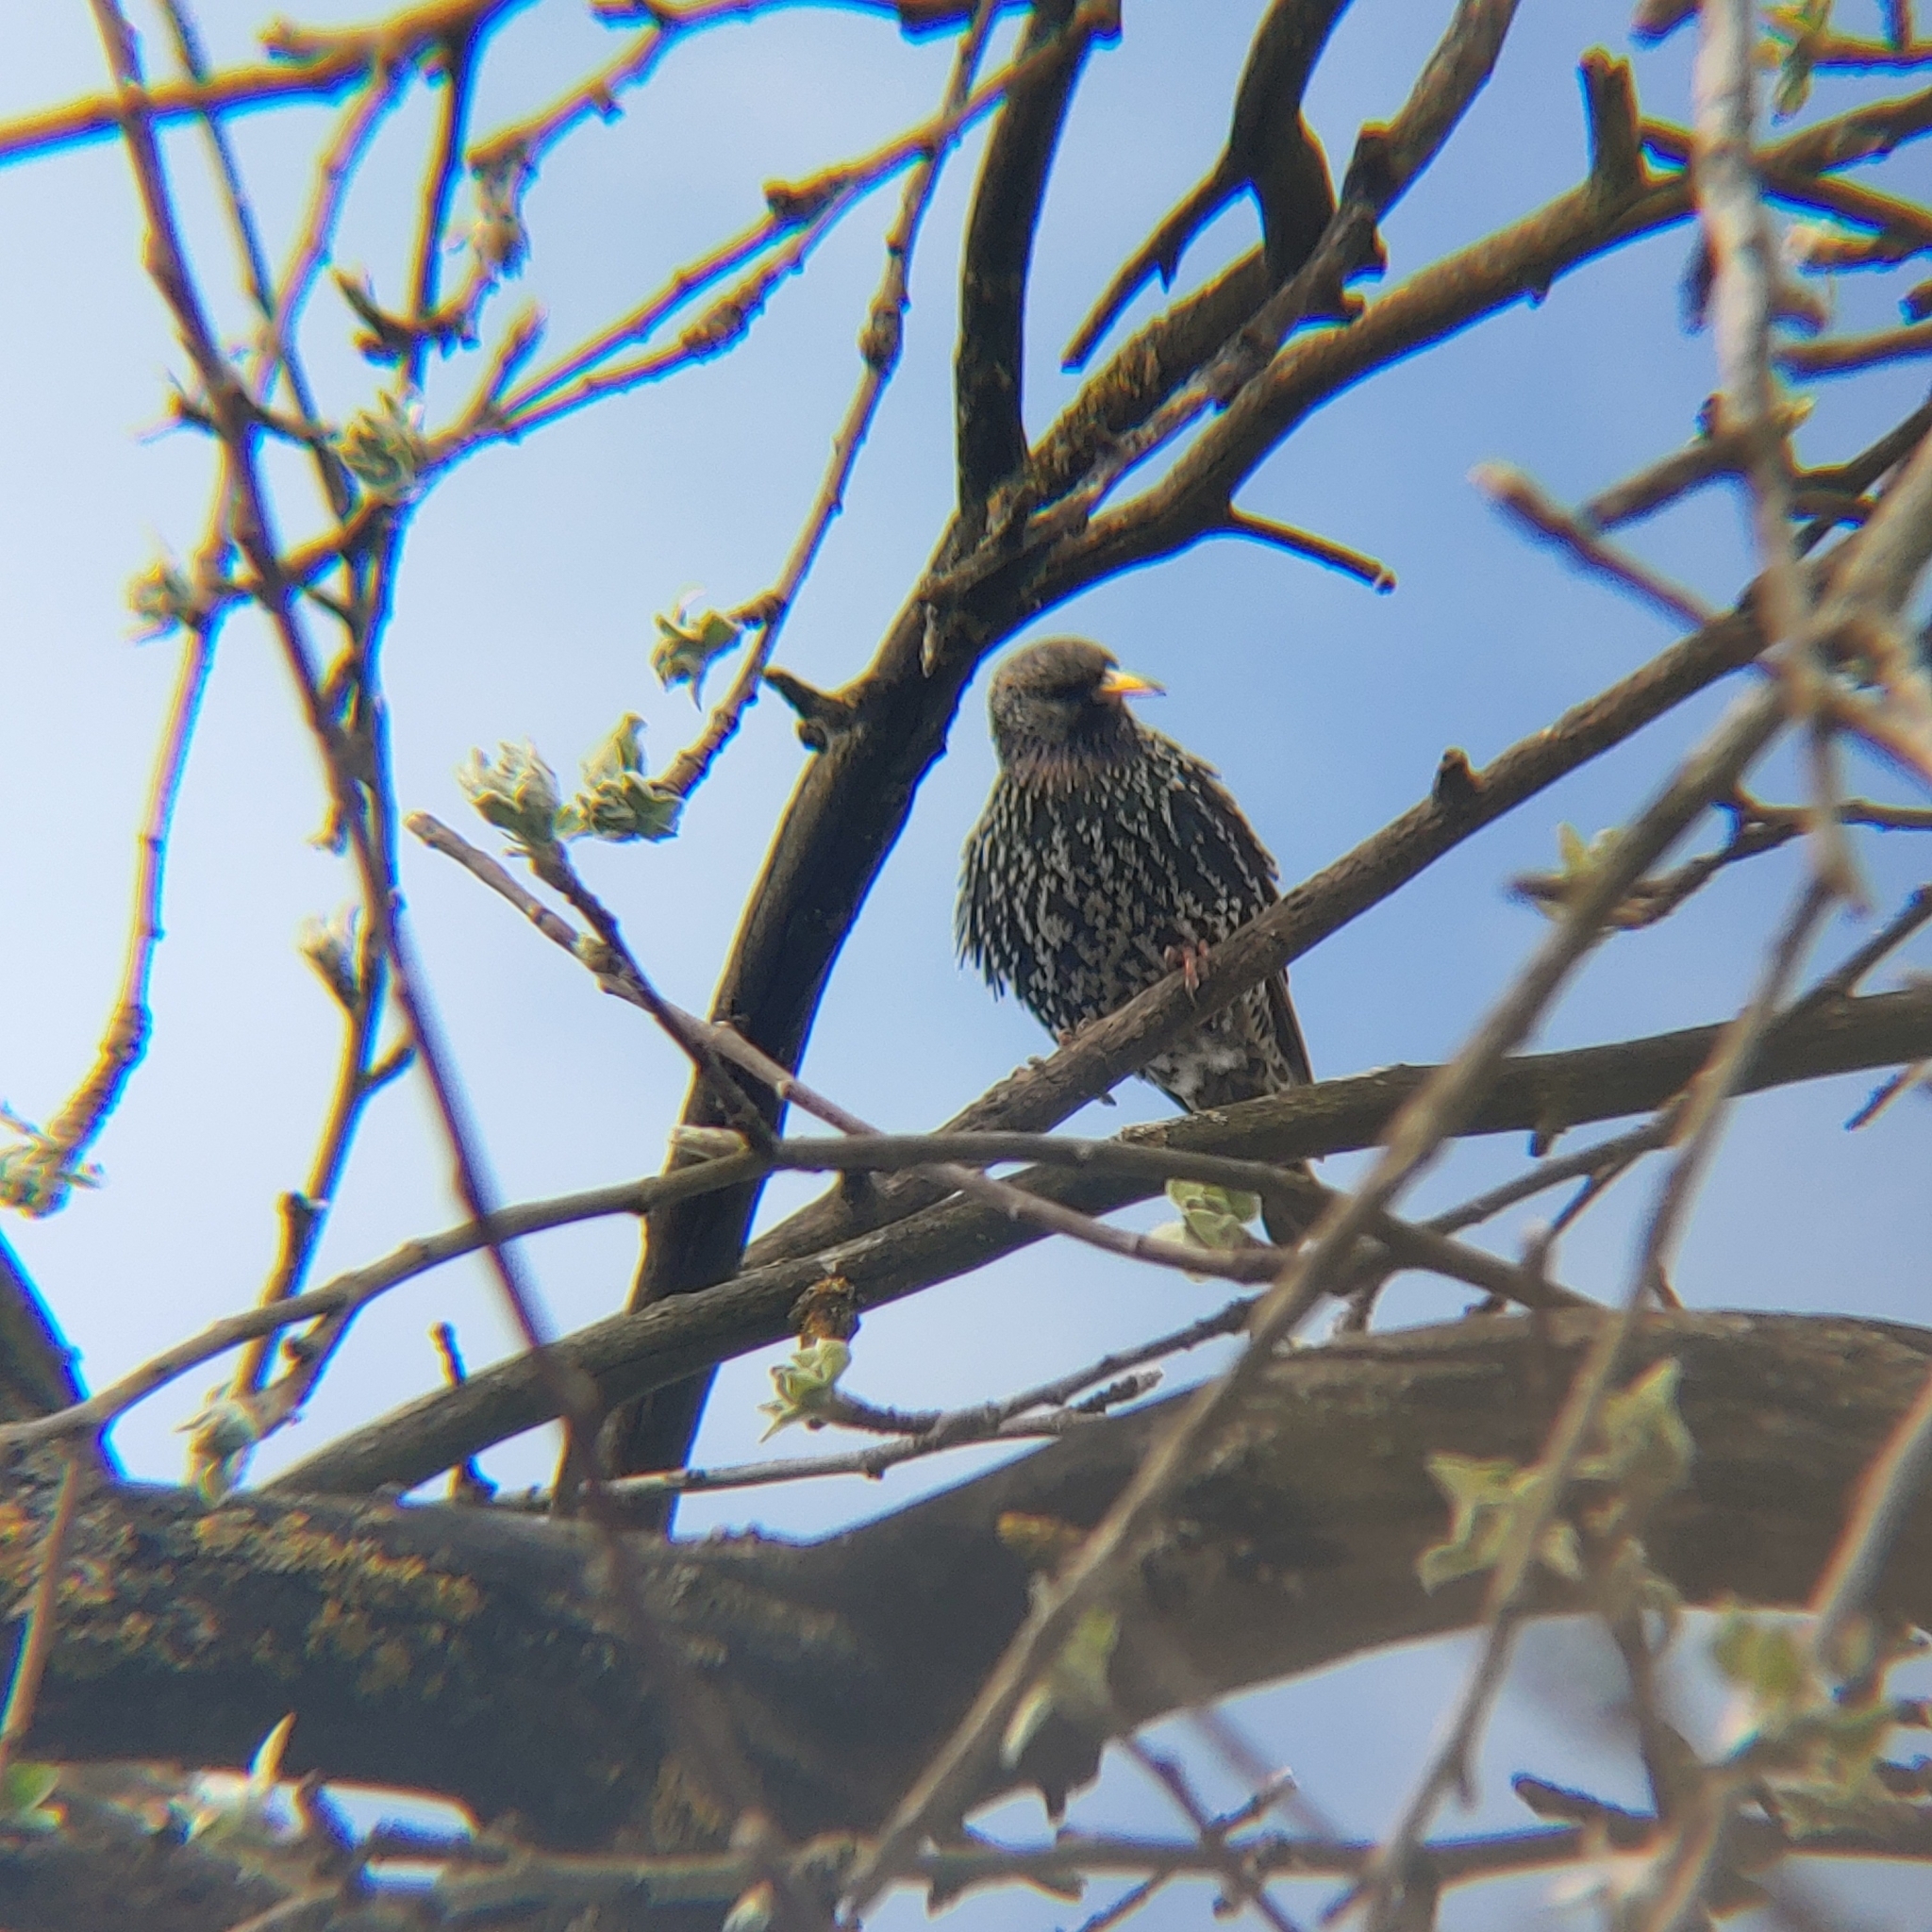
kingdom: Animalia
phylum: Chordata
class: Aves
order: Passeriformes
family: Sturnidae
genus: Sturnus
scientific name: Sturnus vulgaris
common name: Common starling
